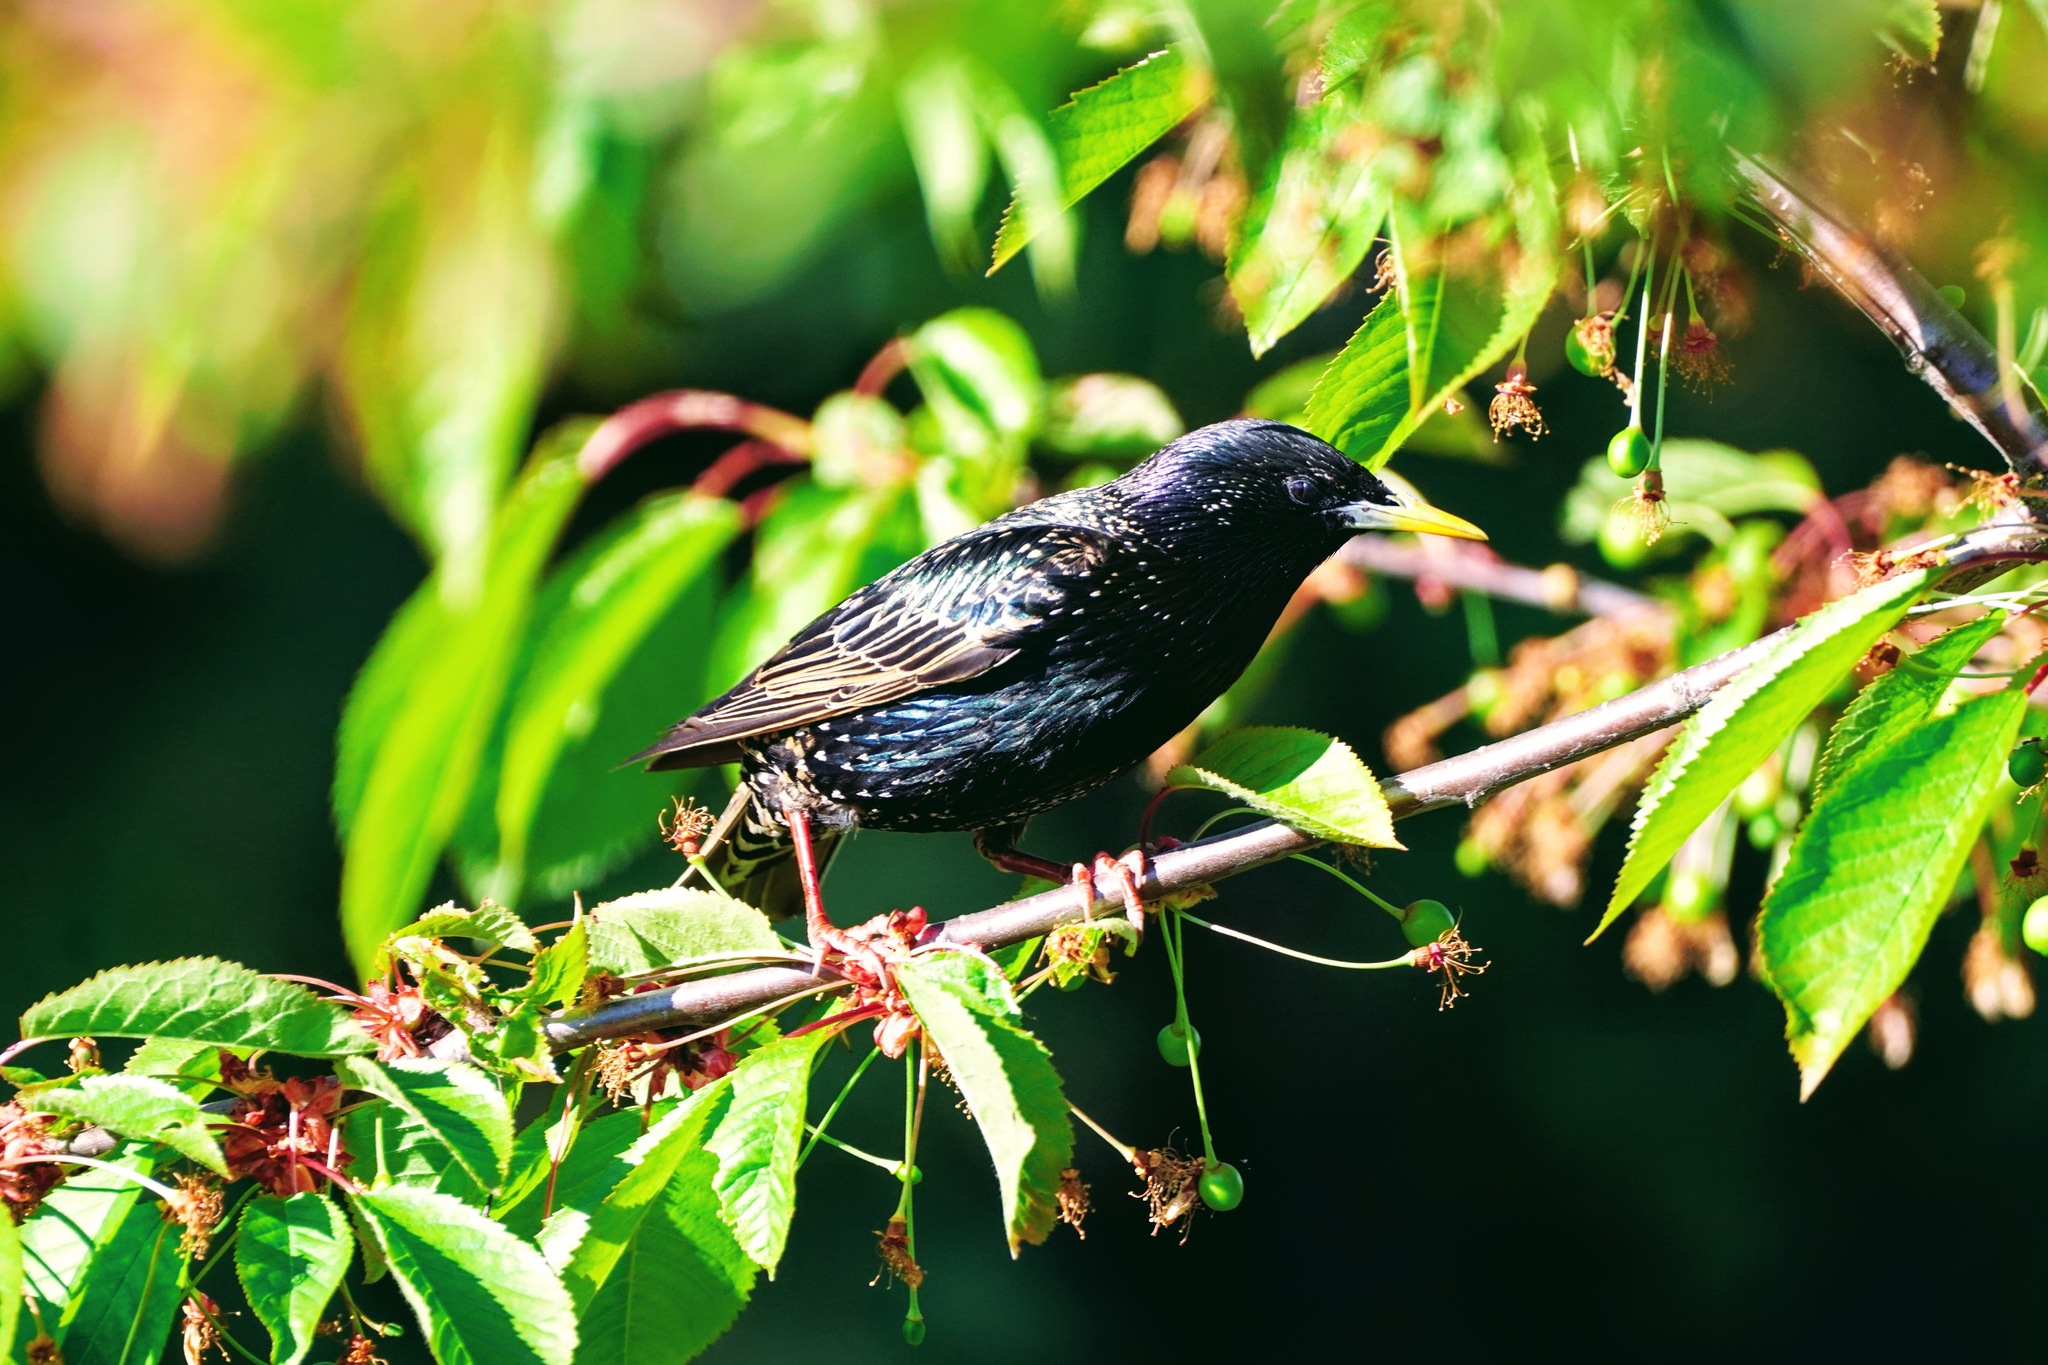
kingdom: Animalia
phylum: Chordata
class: Aves
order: Passeriformes
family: Sturnidae
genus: Sturnus
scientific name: Sturnus vulgaris
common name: Common starling
